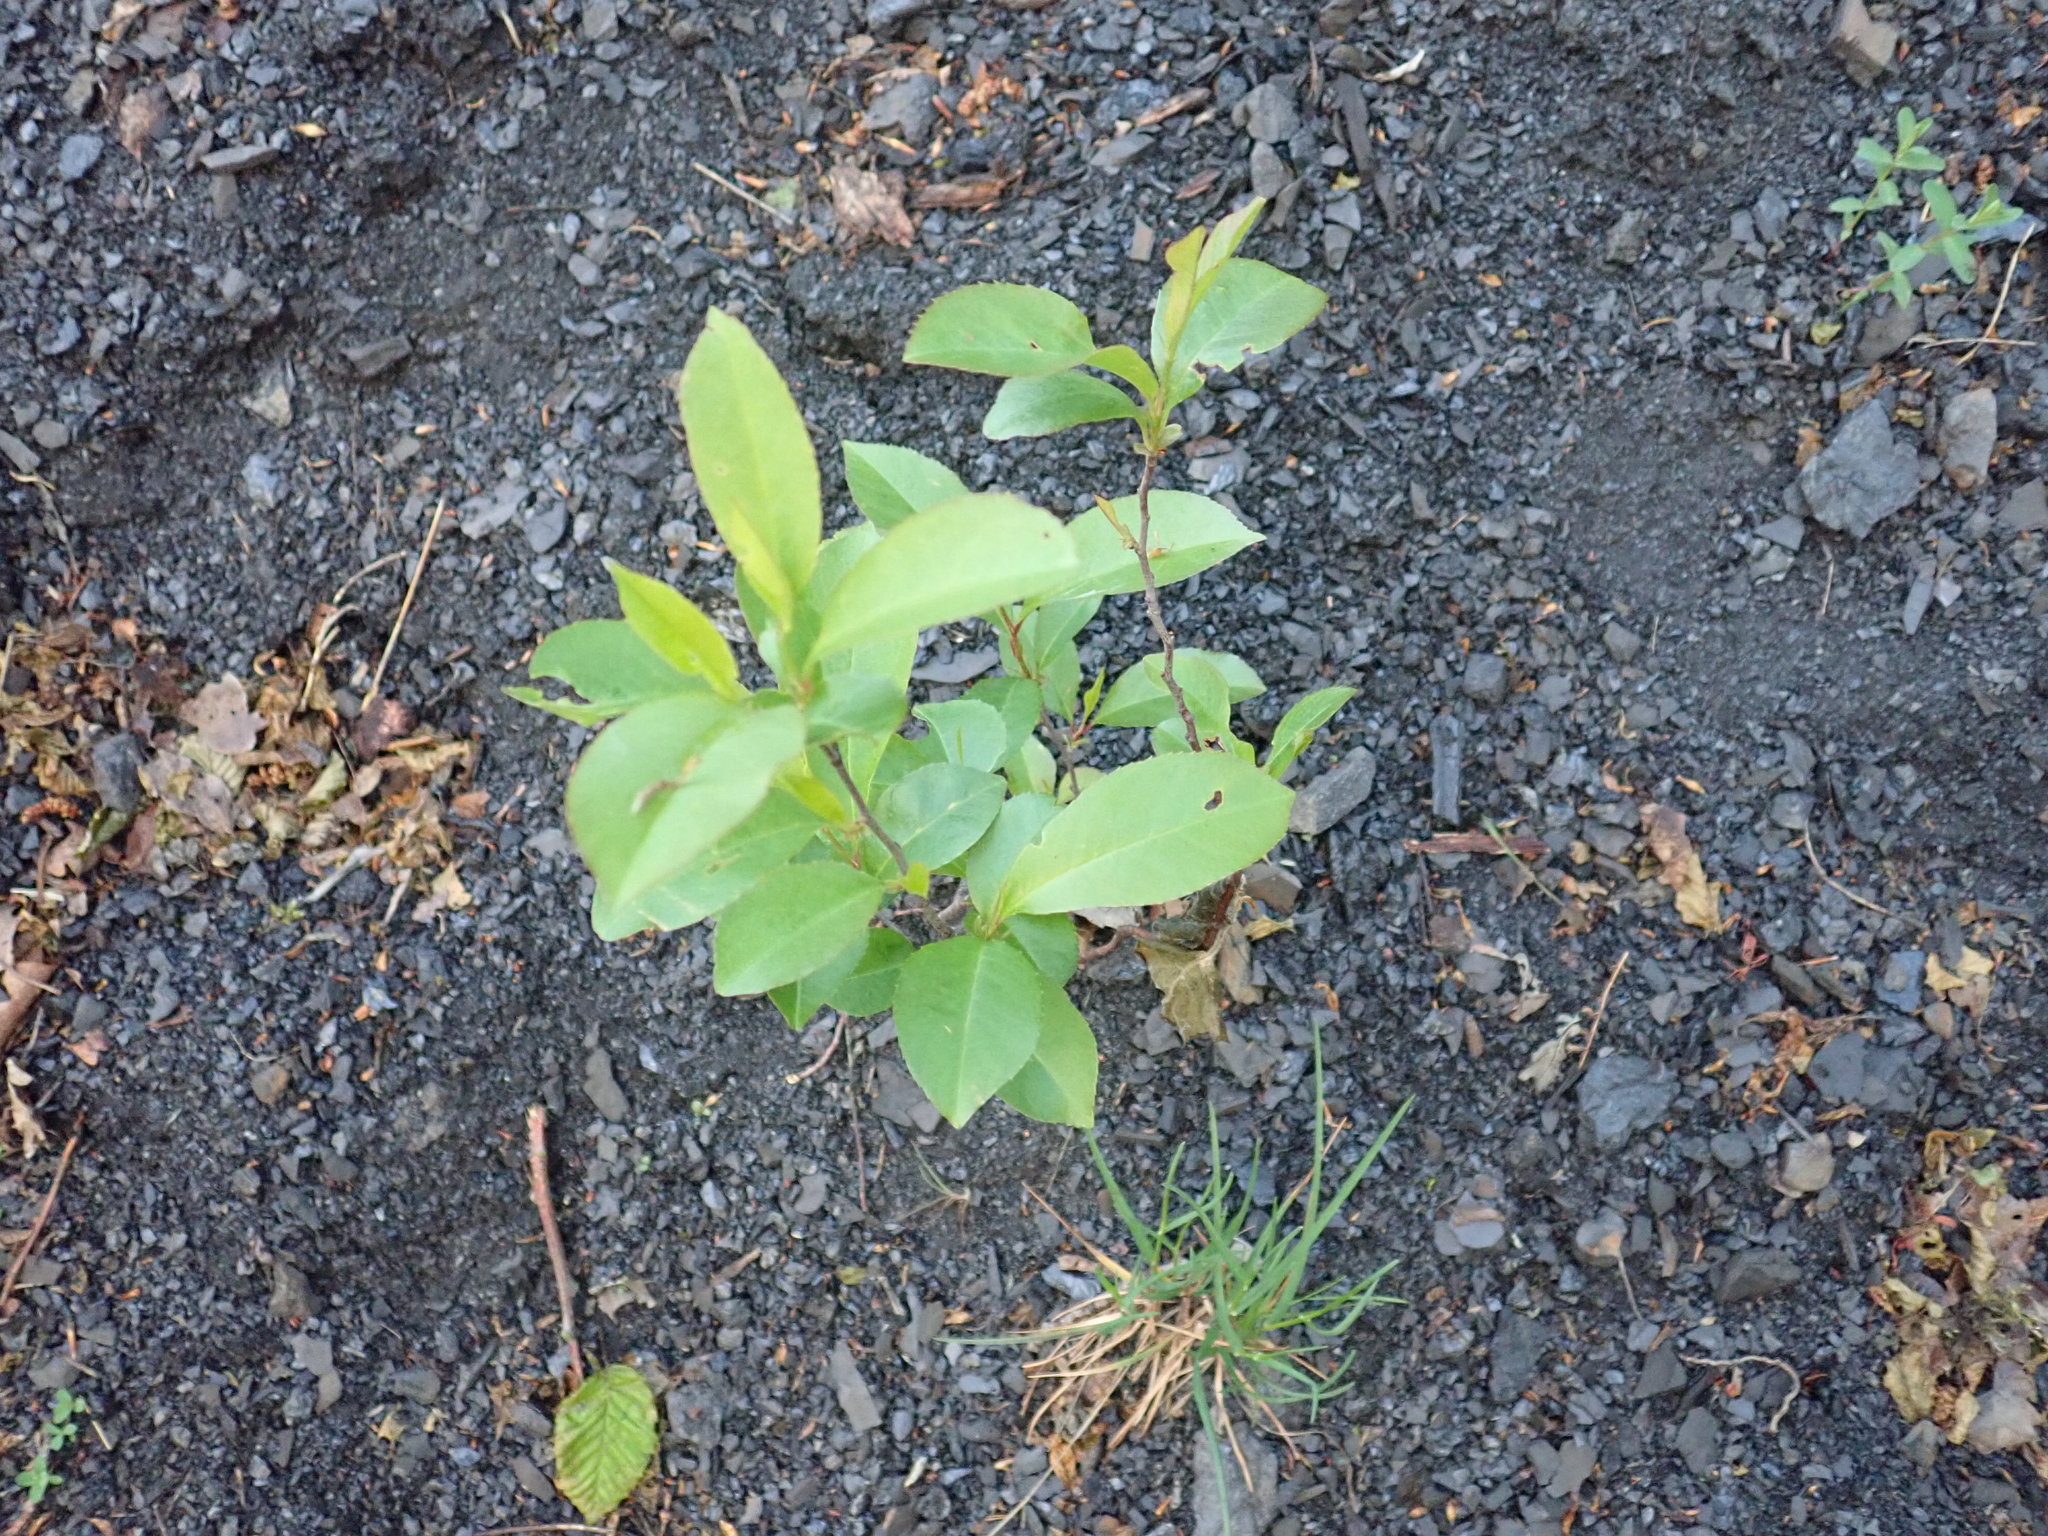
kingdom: Plantae
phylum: Tracheophyta
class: Magnoliopsida
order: Rosales
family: Rosaceae
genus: Prunus
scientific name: Prunus serotina
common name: Black cherry
